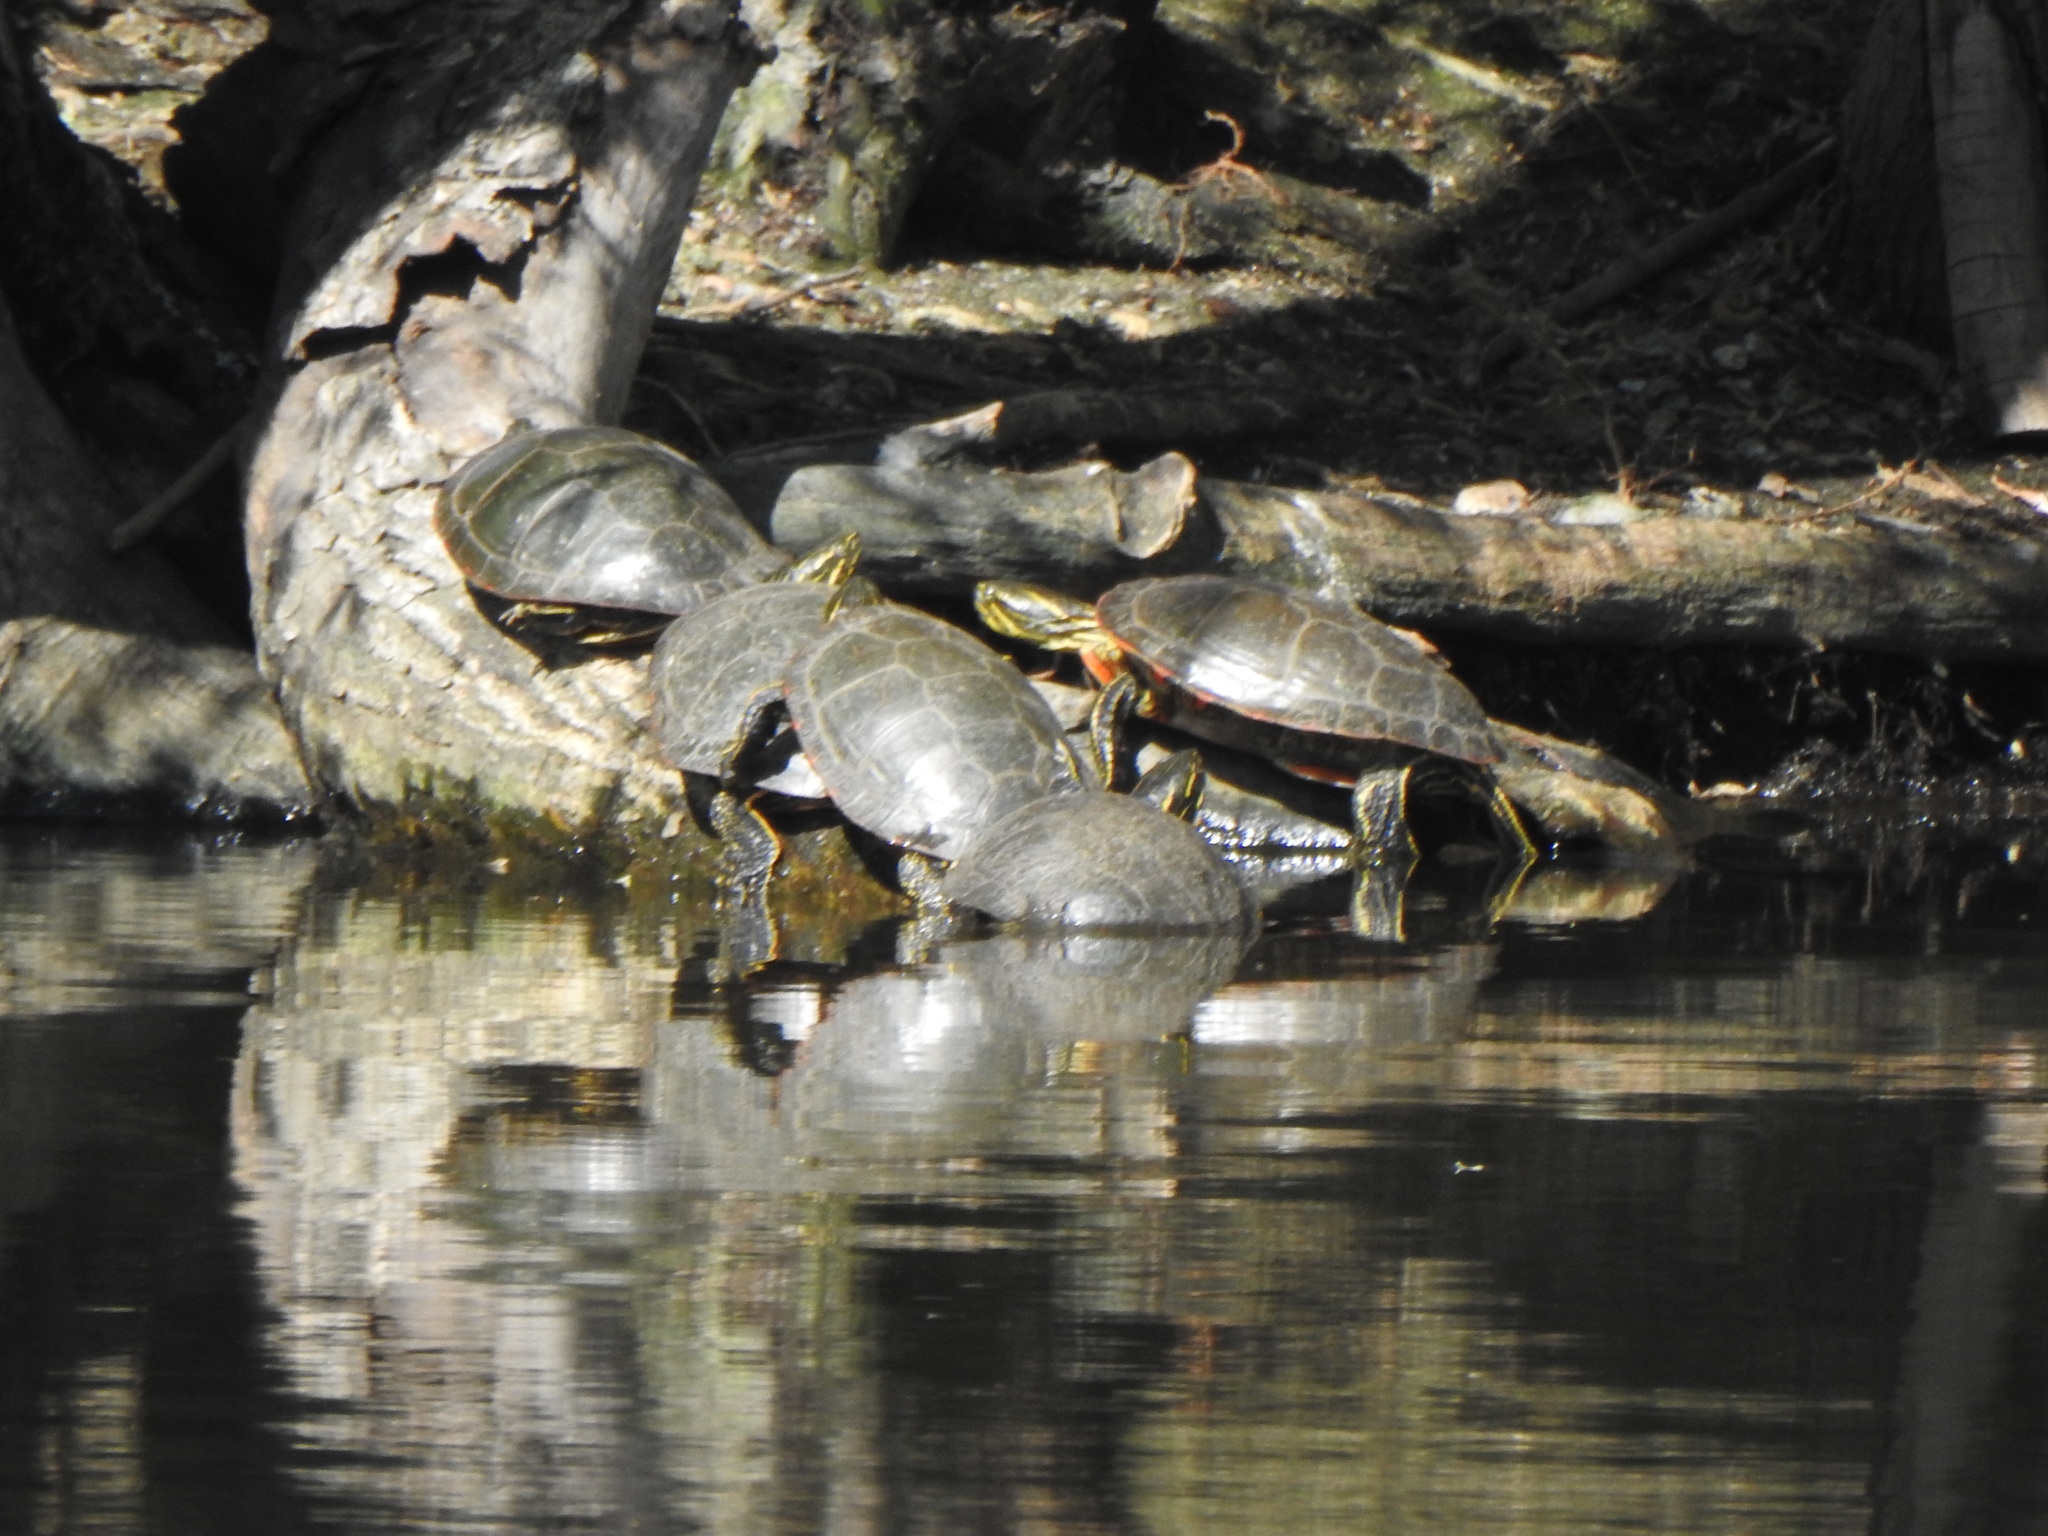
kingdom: Animalia
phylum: Chordata
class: Testudines
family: Emydidae
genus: Chrysemys
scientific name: Chrysemys picta
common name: Painted turtle
